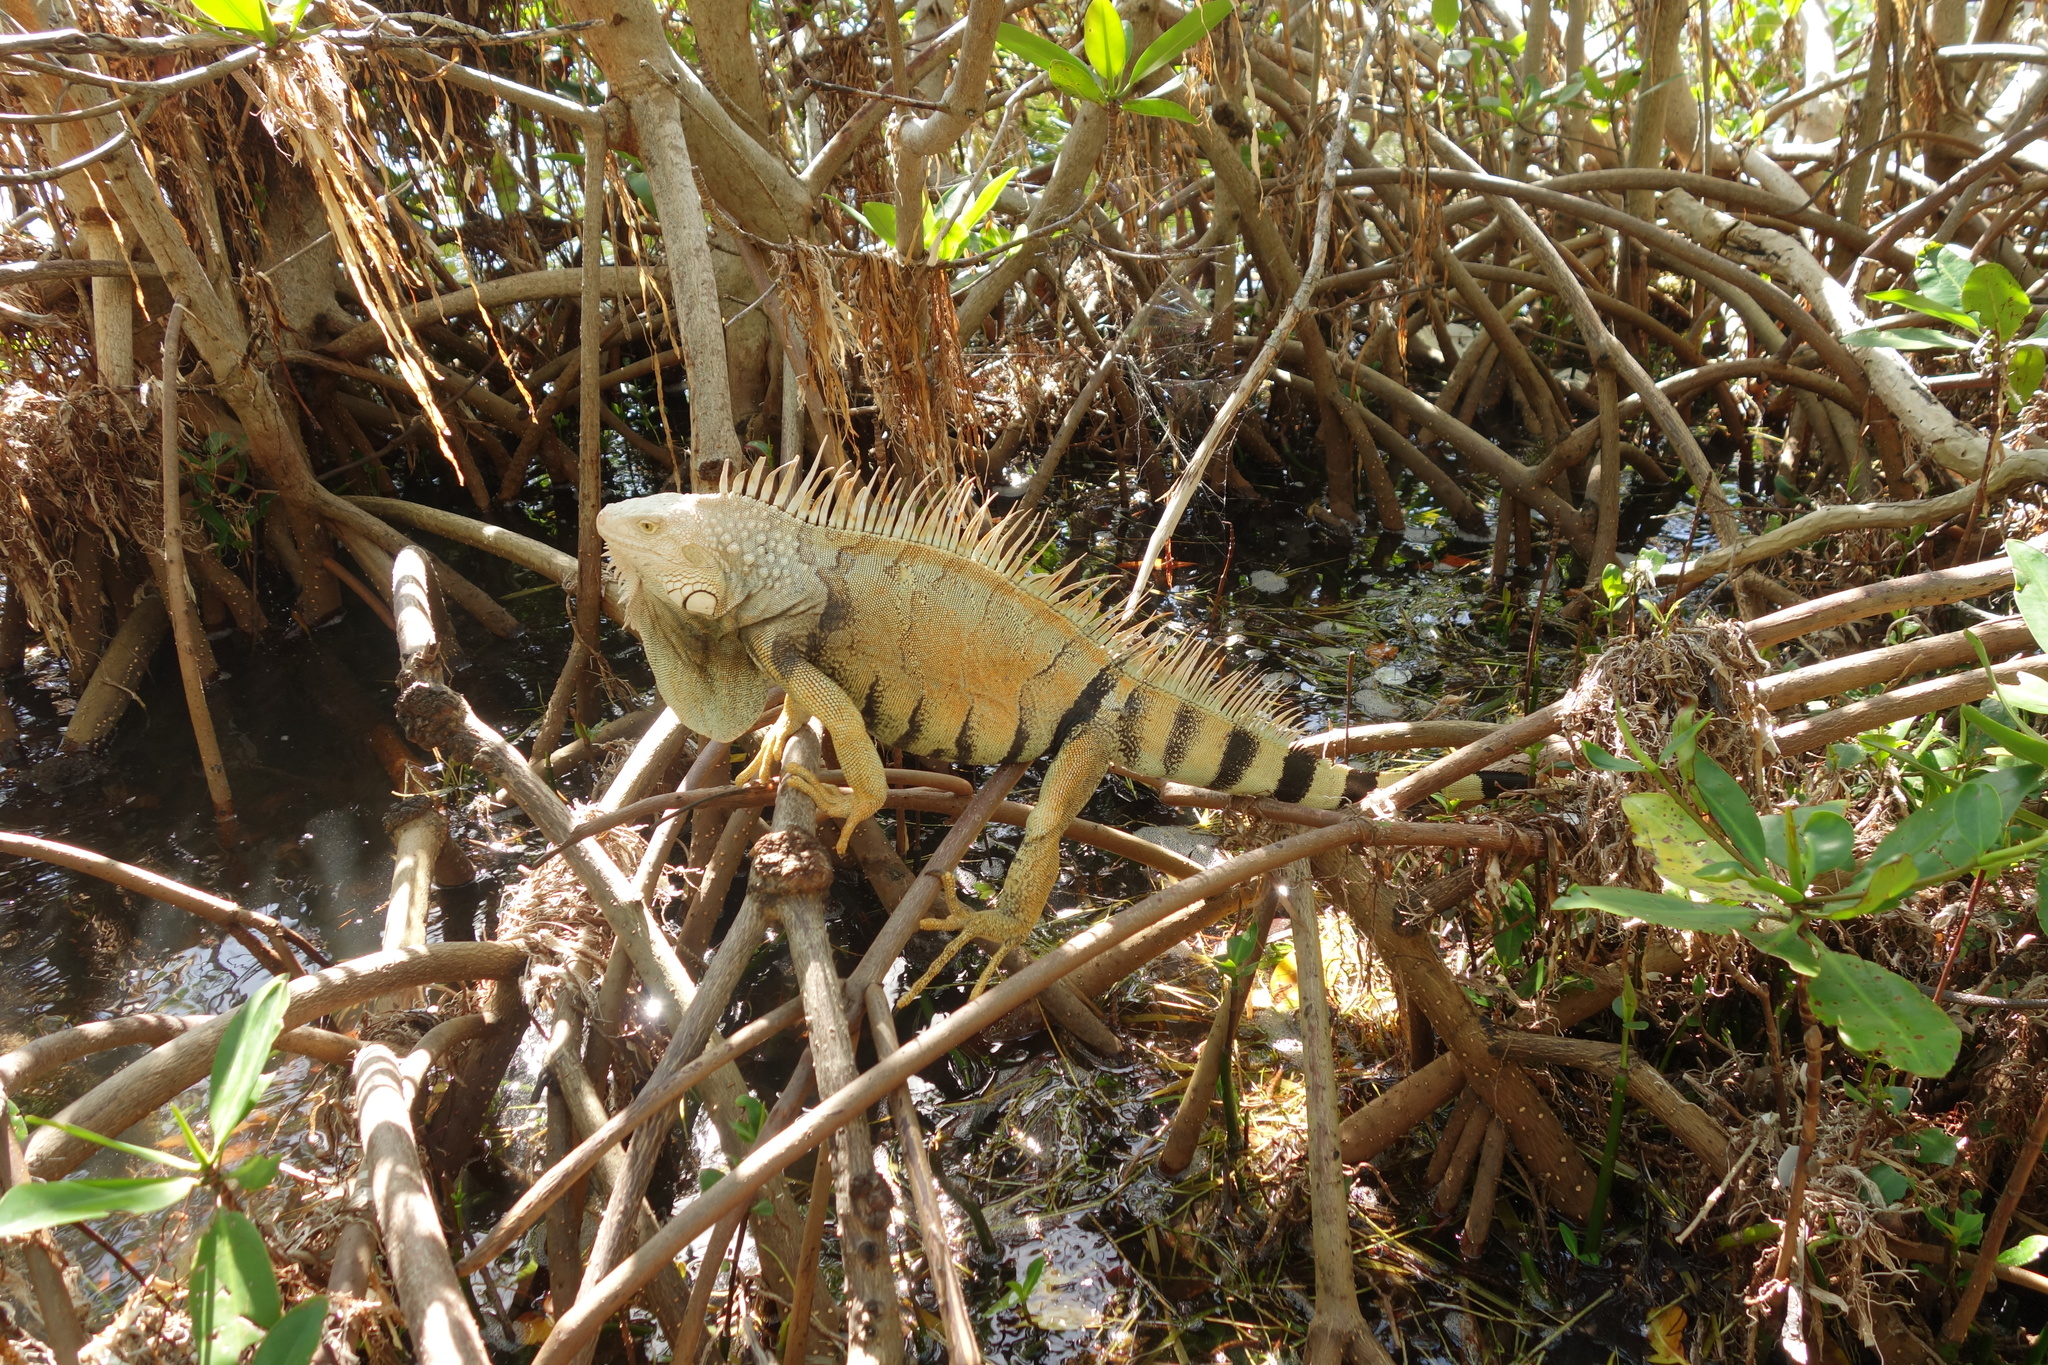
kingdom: Animalia
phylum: Chordata
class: Squamata
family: Iguanidae
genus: Iguana
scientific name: Iguana iguana
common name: Green iguana
